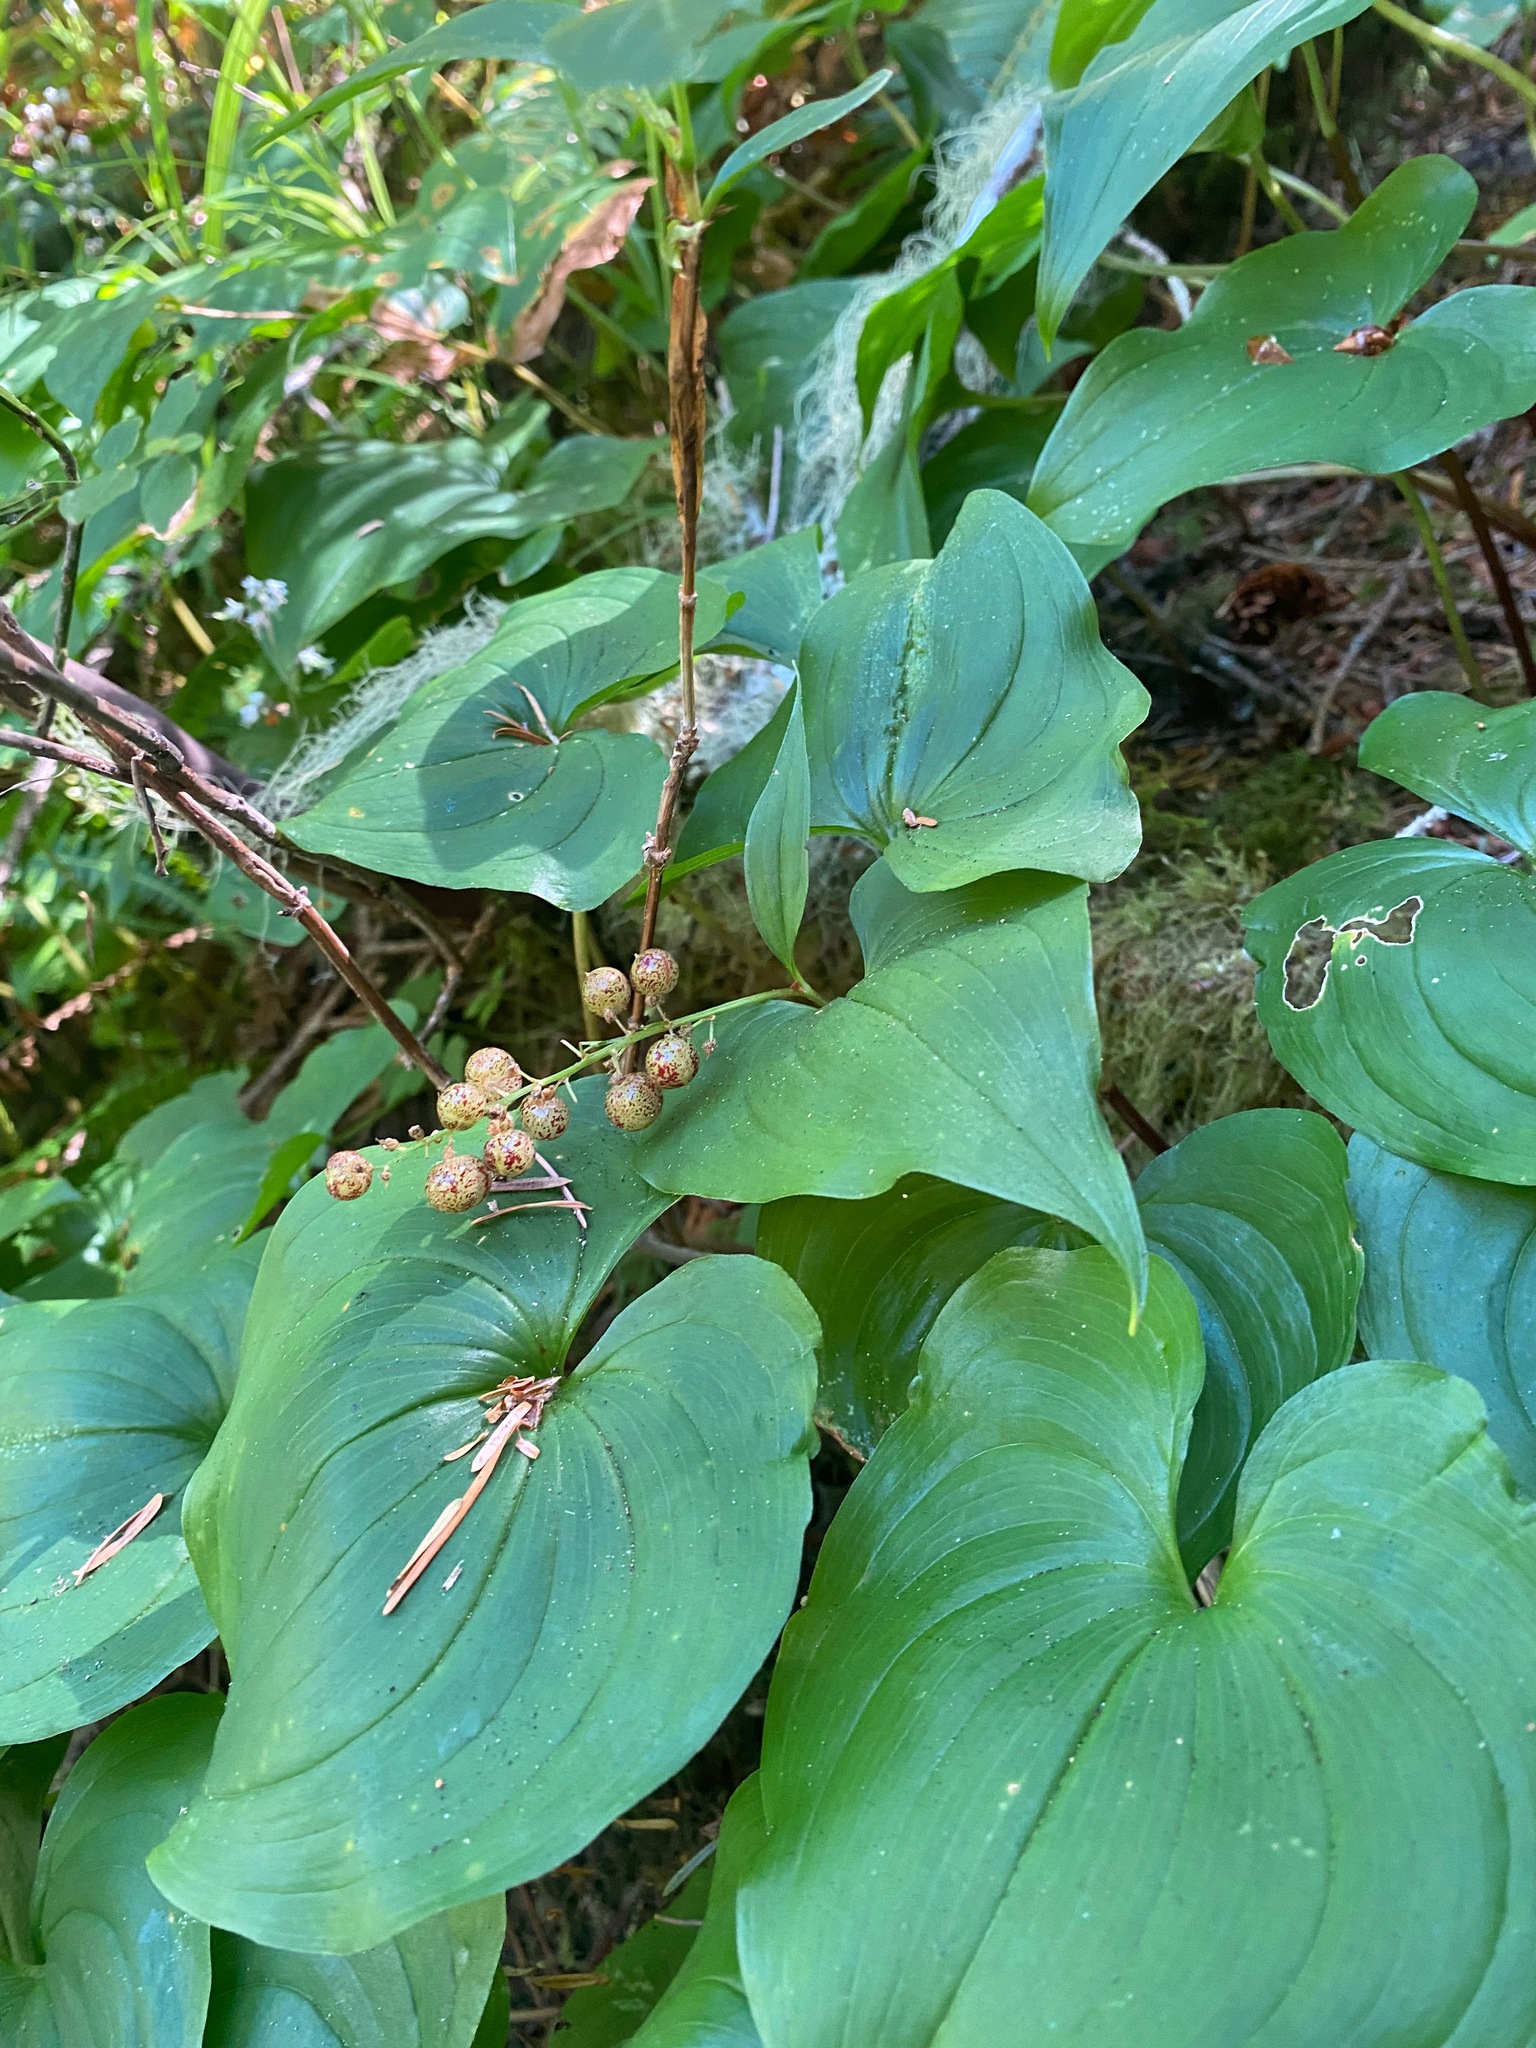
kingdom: Plantae
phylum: Tracheophyta
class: Liliopsida
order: Asparagales
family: Asparagaceae
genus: Maianthemum
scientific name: Maianthemum dilatatum
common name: False lily-of-the-valley
